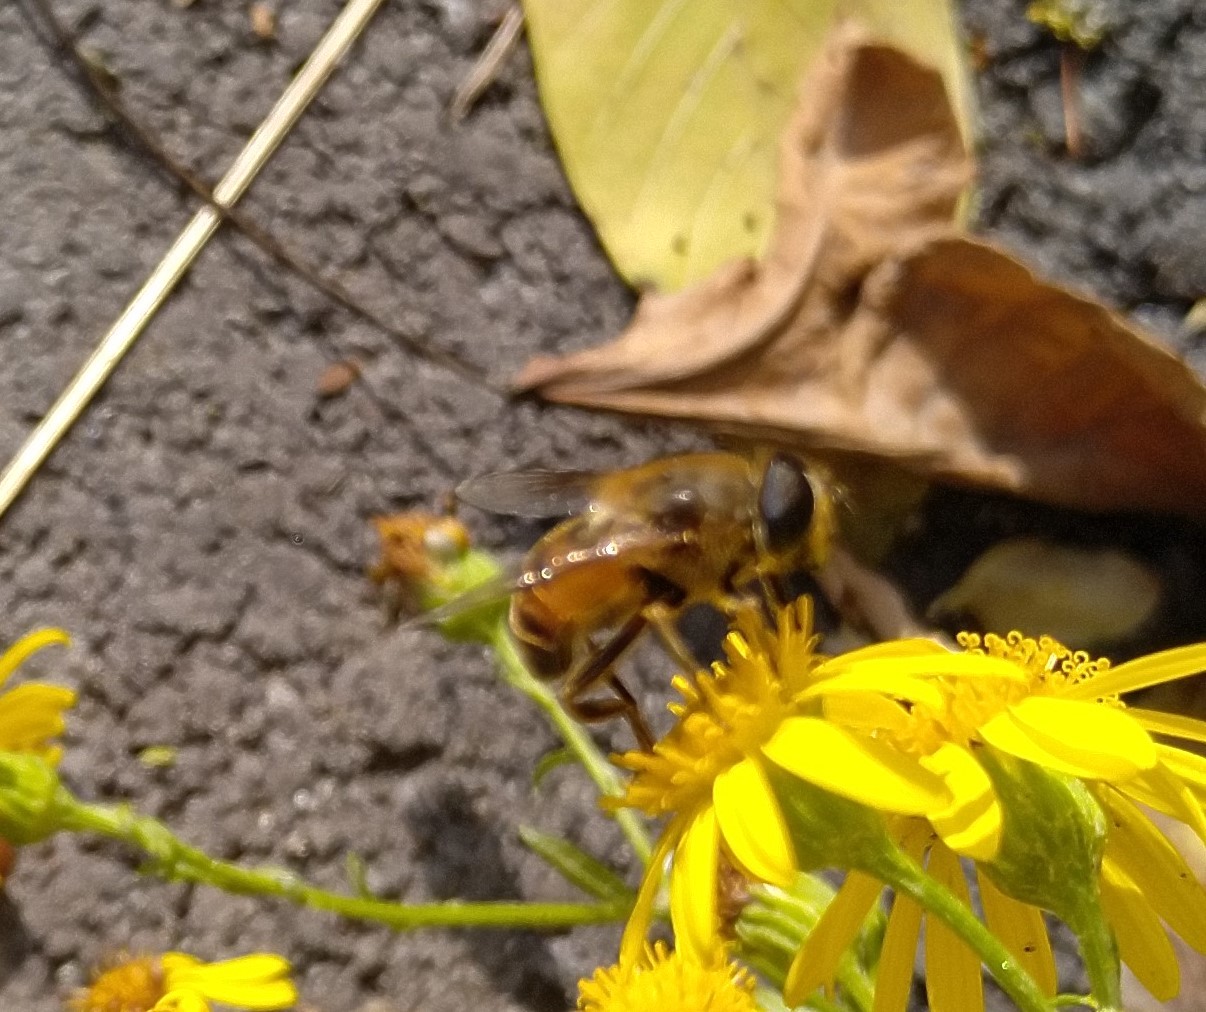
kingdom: Animalia
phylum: Arthropoda
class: Insecta
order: Diptera
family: Syrphidae
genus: Eristalis
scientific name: Eristalis tenax
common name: Drone fly
